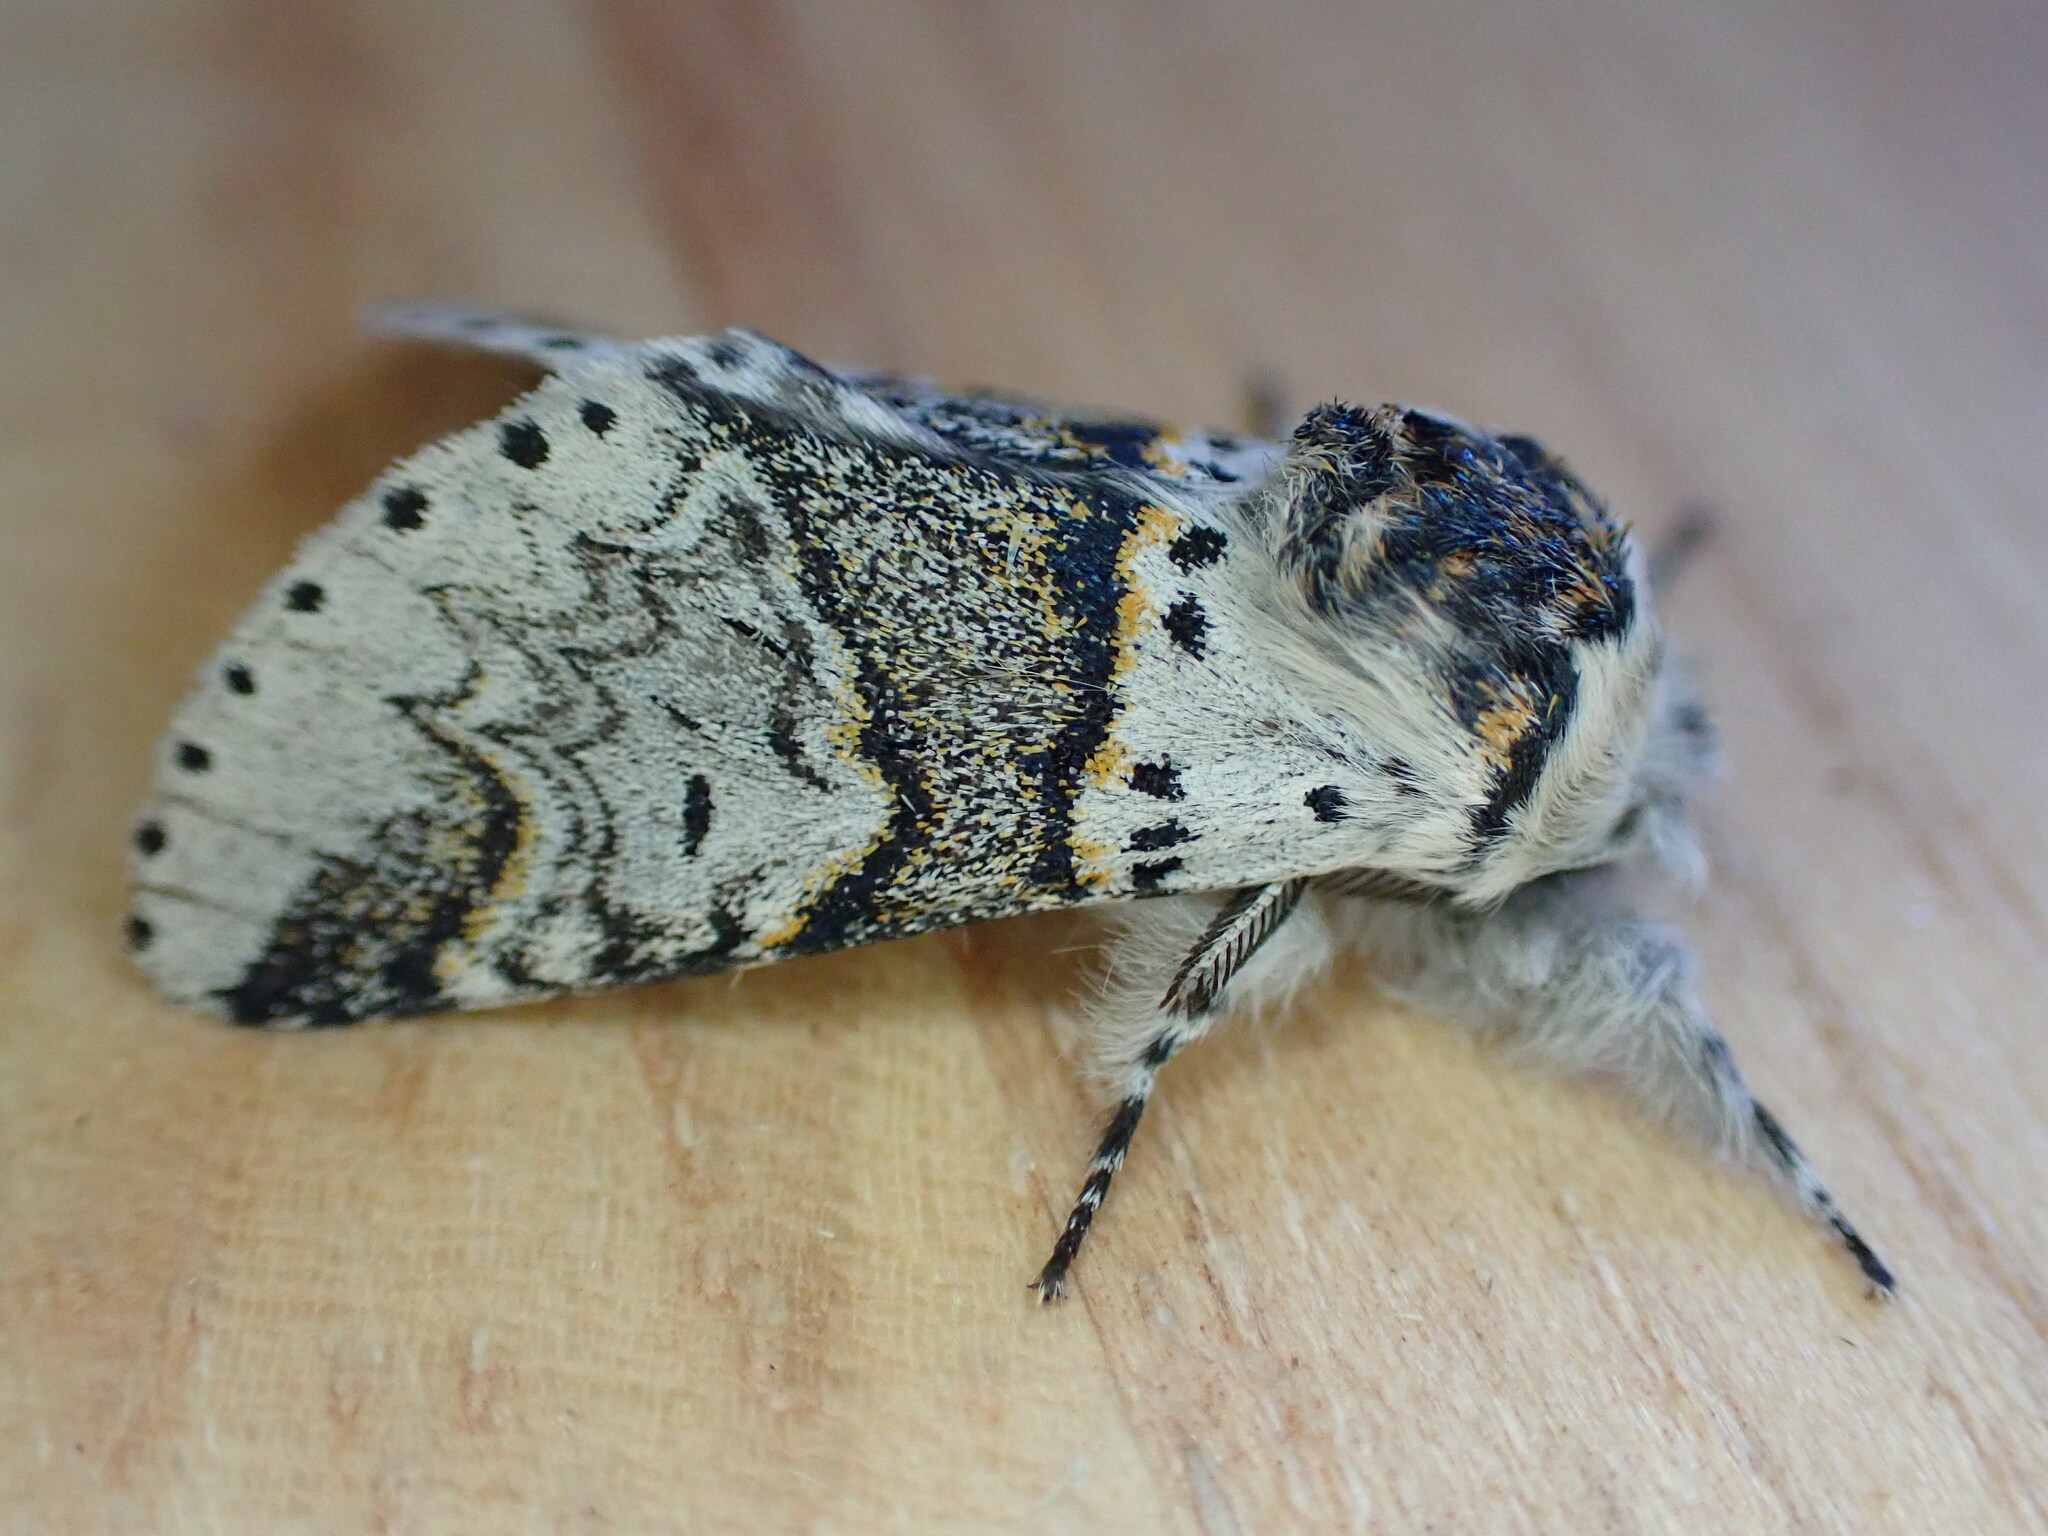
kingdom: Animalia
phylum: Arthropoda
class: Insecta
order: Lepidoptera
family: Notodontidae
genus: Furcula
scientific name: Furcula furcula
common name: Sallow kitten
